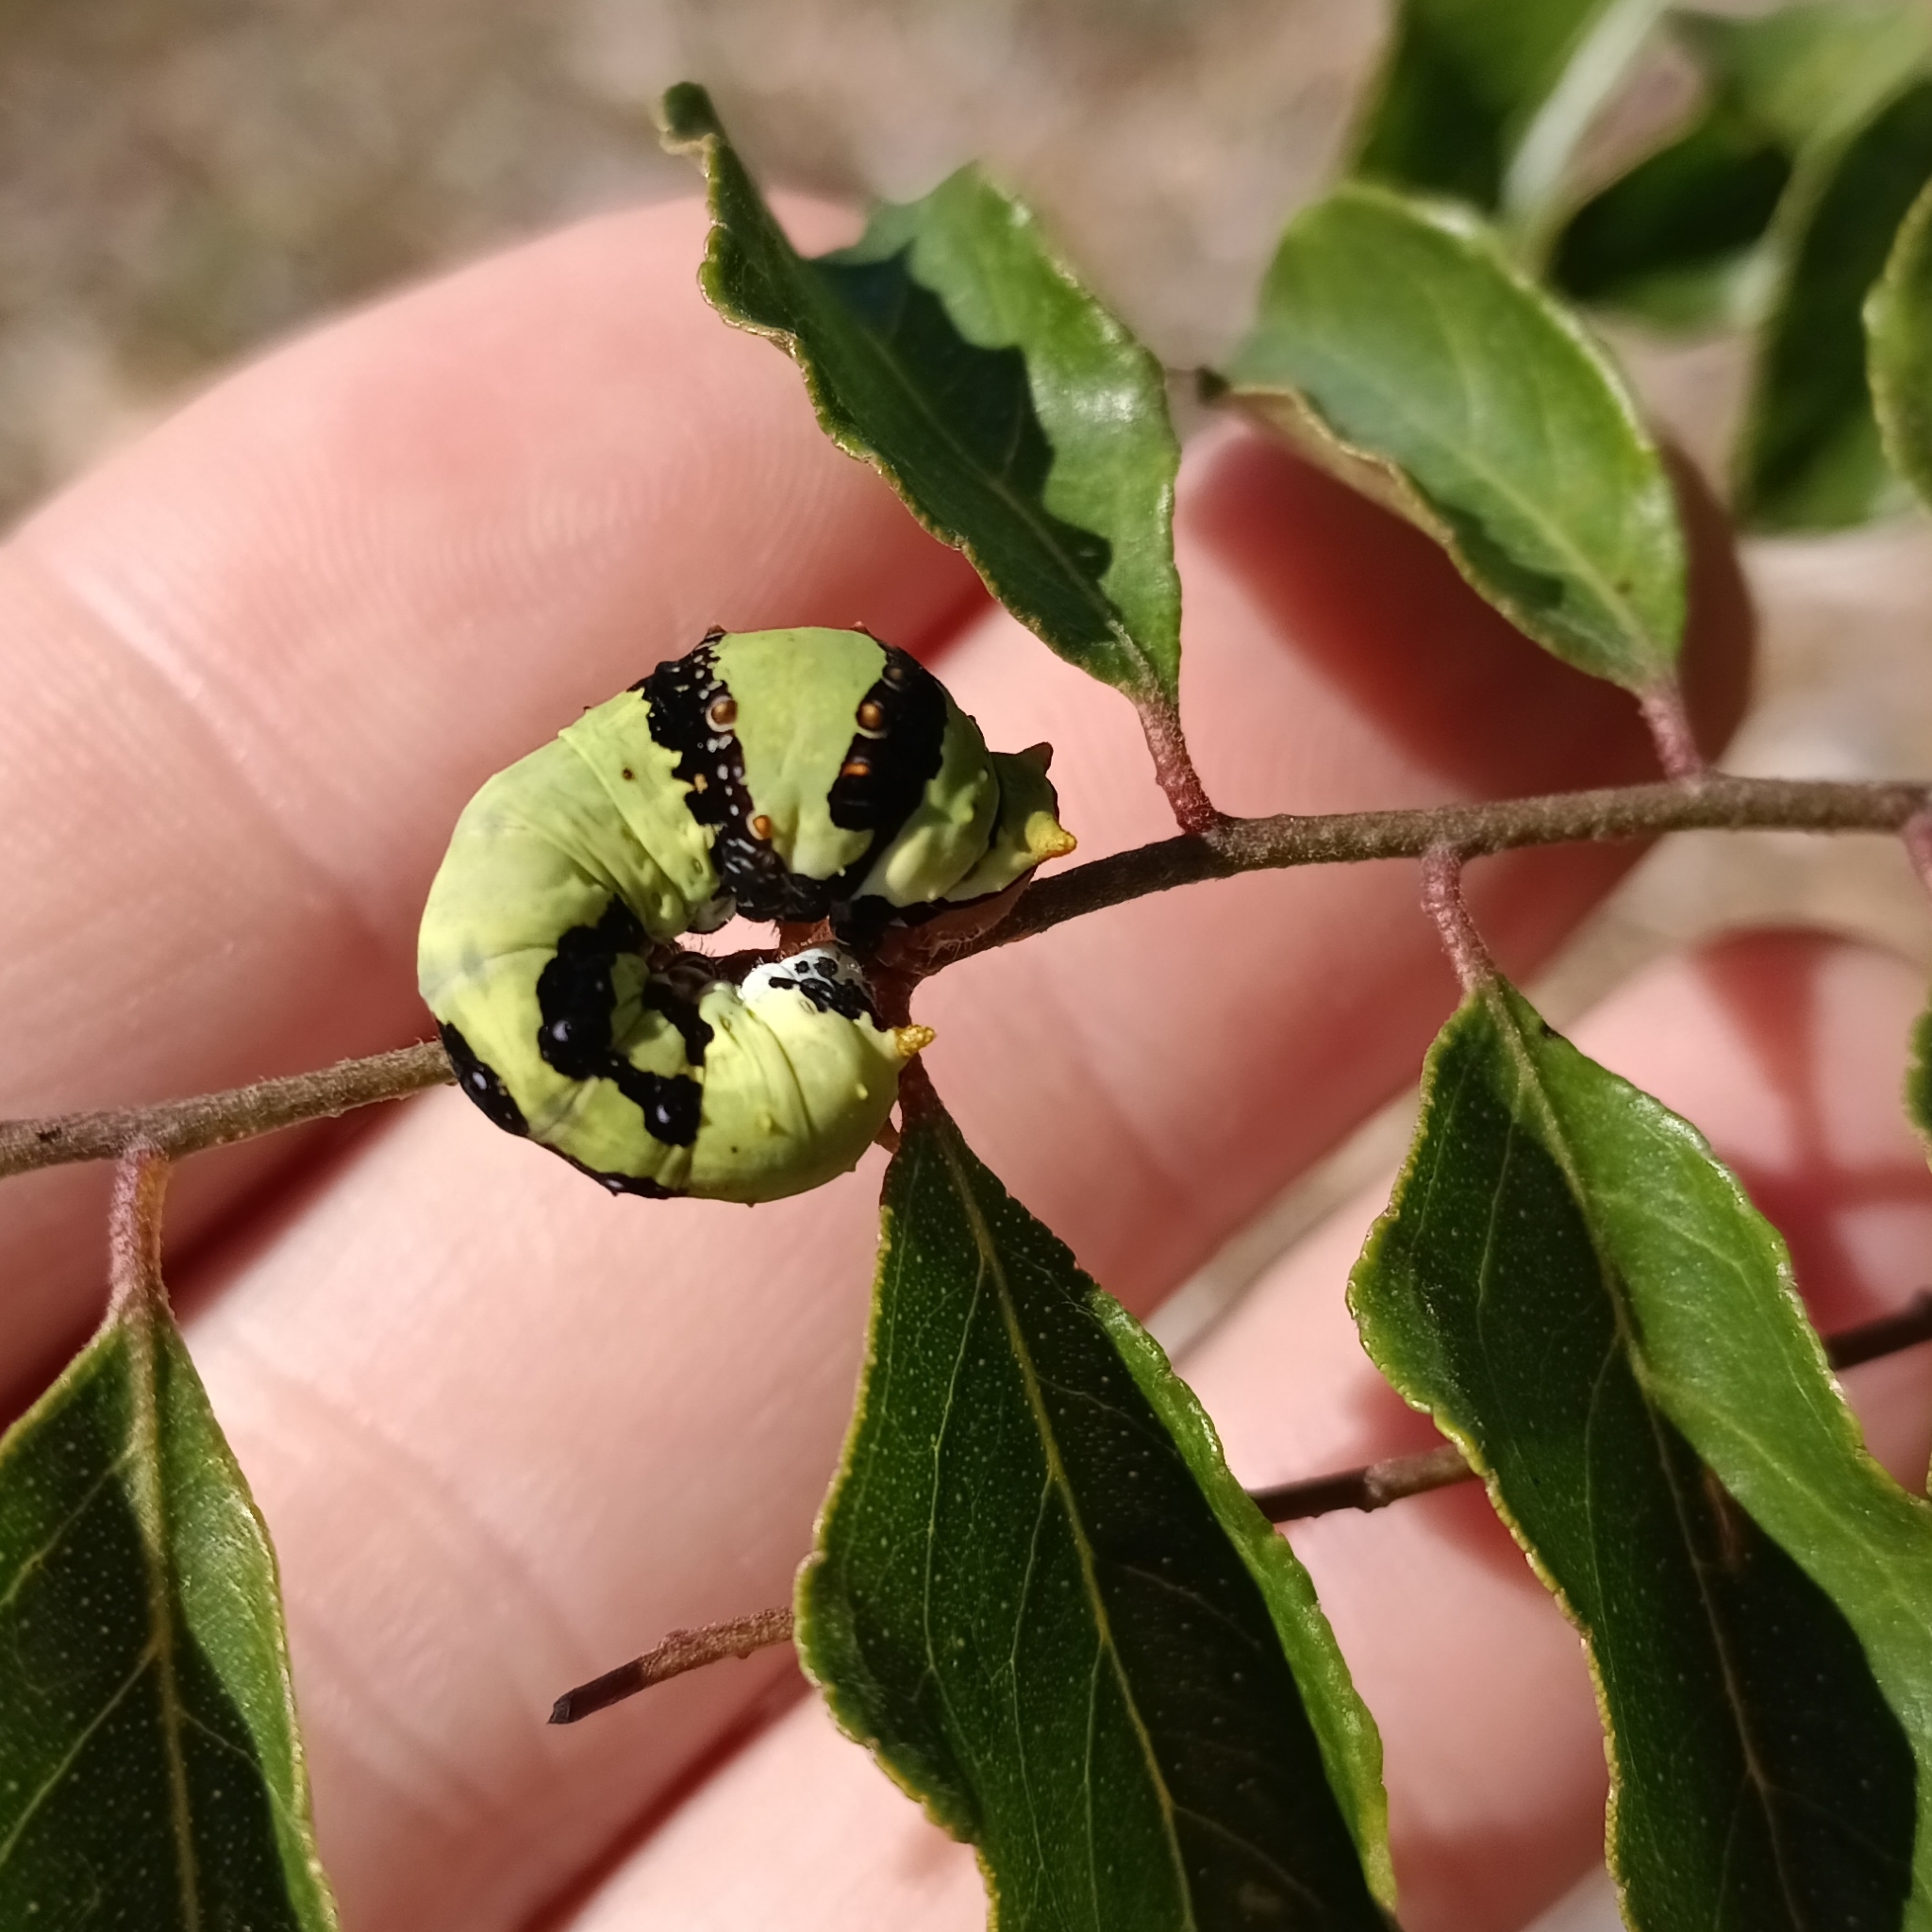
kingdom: Animalia
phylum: Arthropoda
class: Insecta
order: Lepidoptera
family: Papilionidae
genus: Papilio
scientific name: Papilio demodocus
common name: Christmas butterfly
